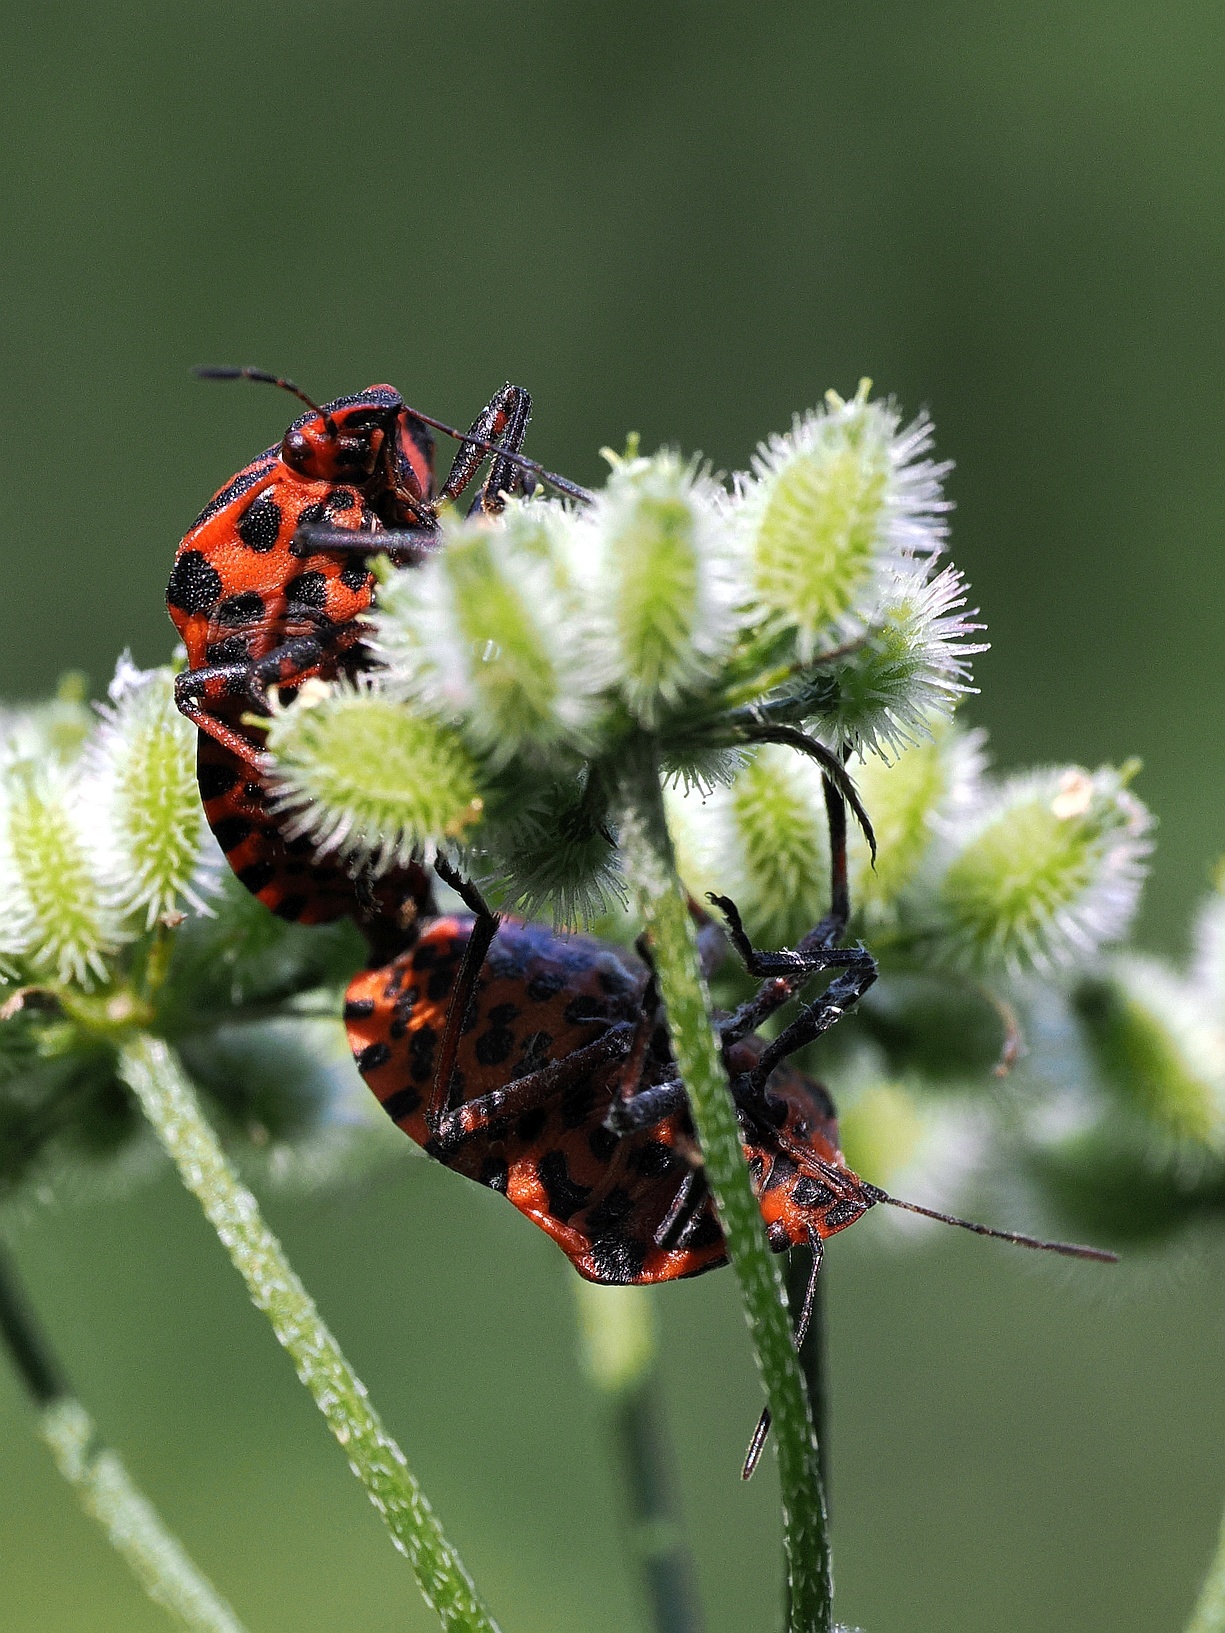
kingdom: Animalia
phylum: Arthropoda
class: Insecta
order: Hemiptera
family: Pentatomidae
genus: Graphosoma
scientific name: Graphosoma italicum
